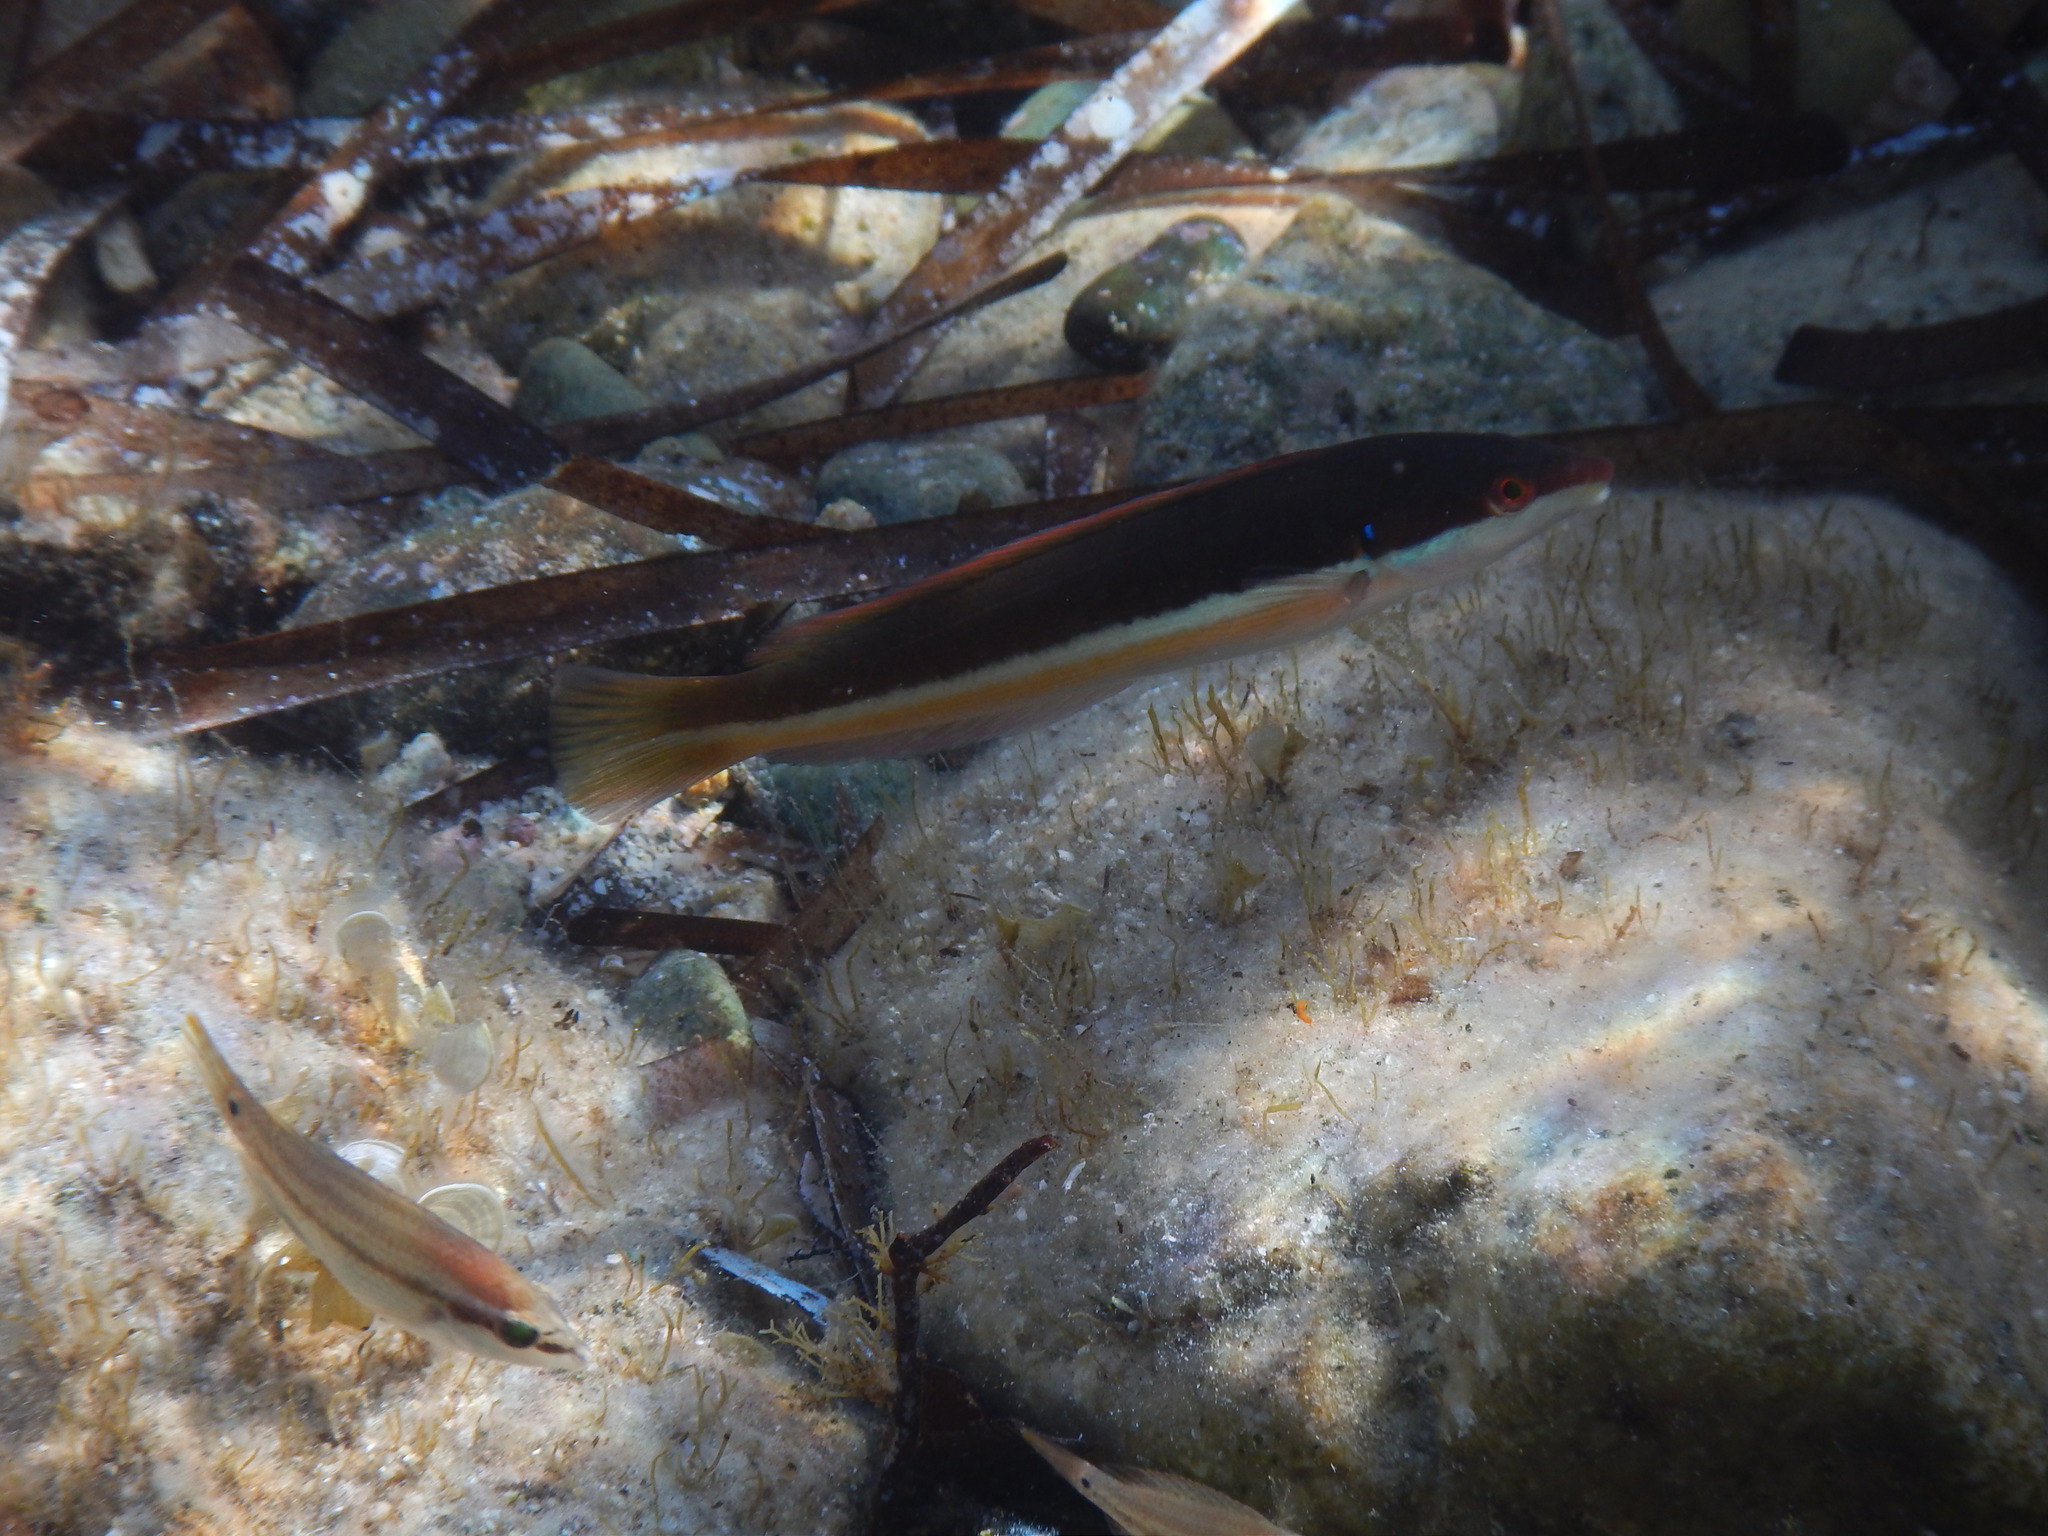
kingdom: Animalia
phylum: Chordata
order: Perciformes
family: Labridae
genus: Coris
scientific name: Coris julis
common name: Rainbow wrasse
